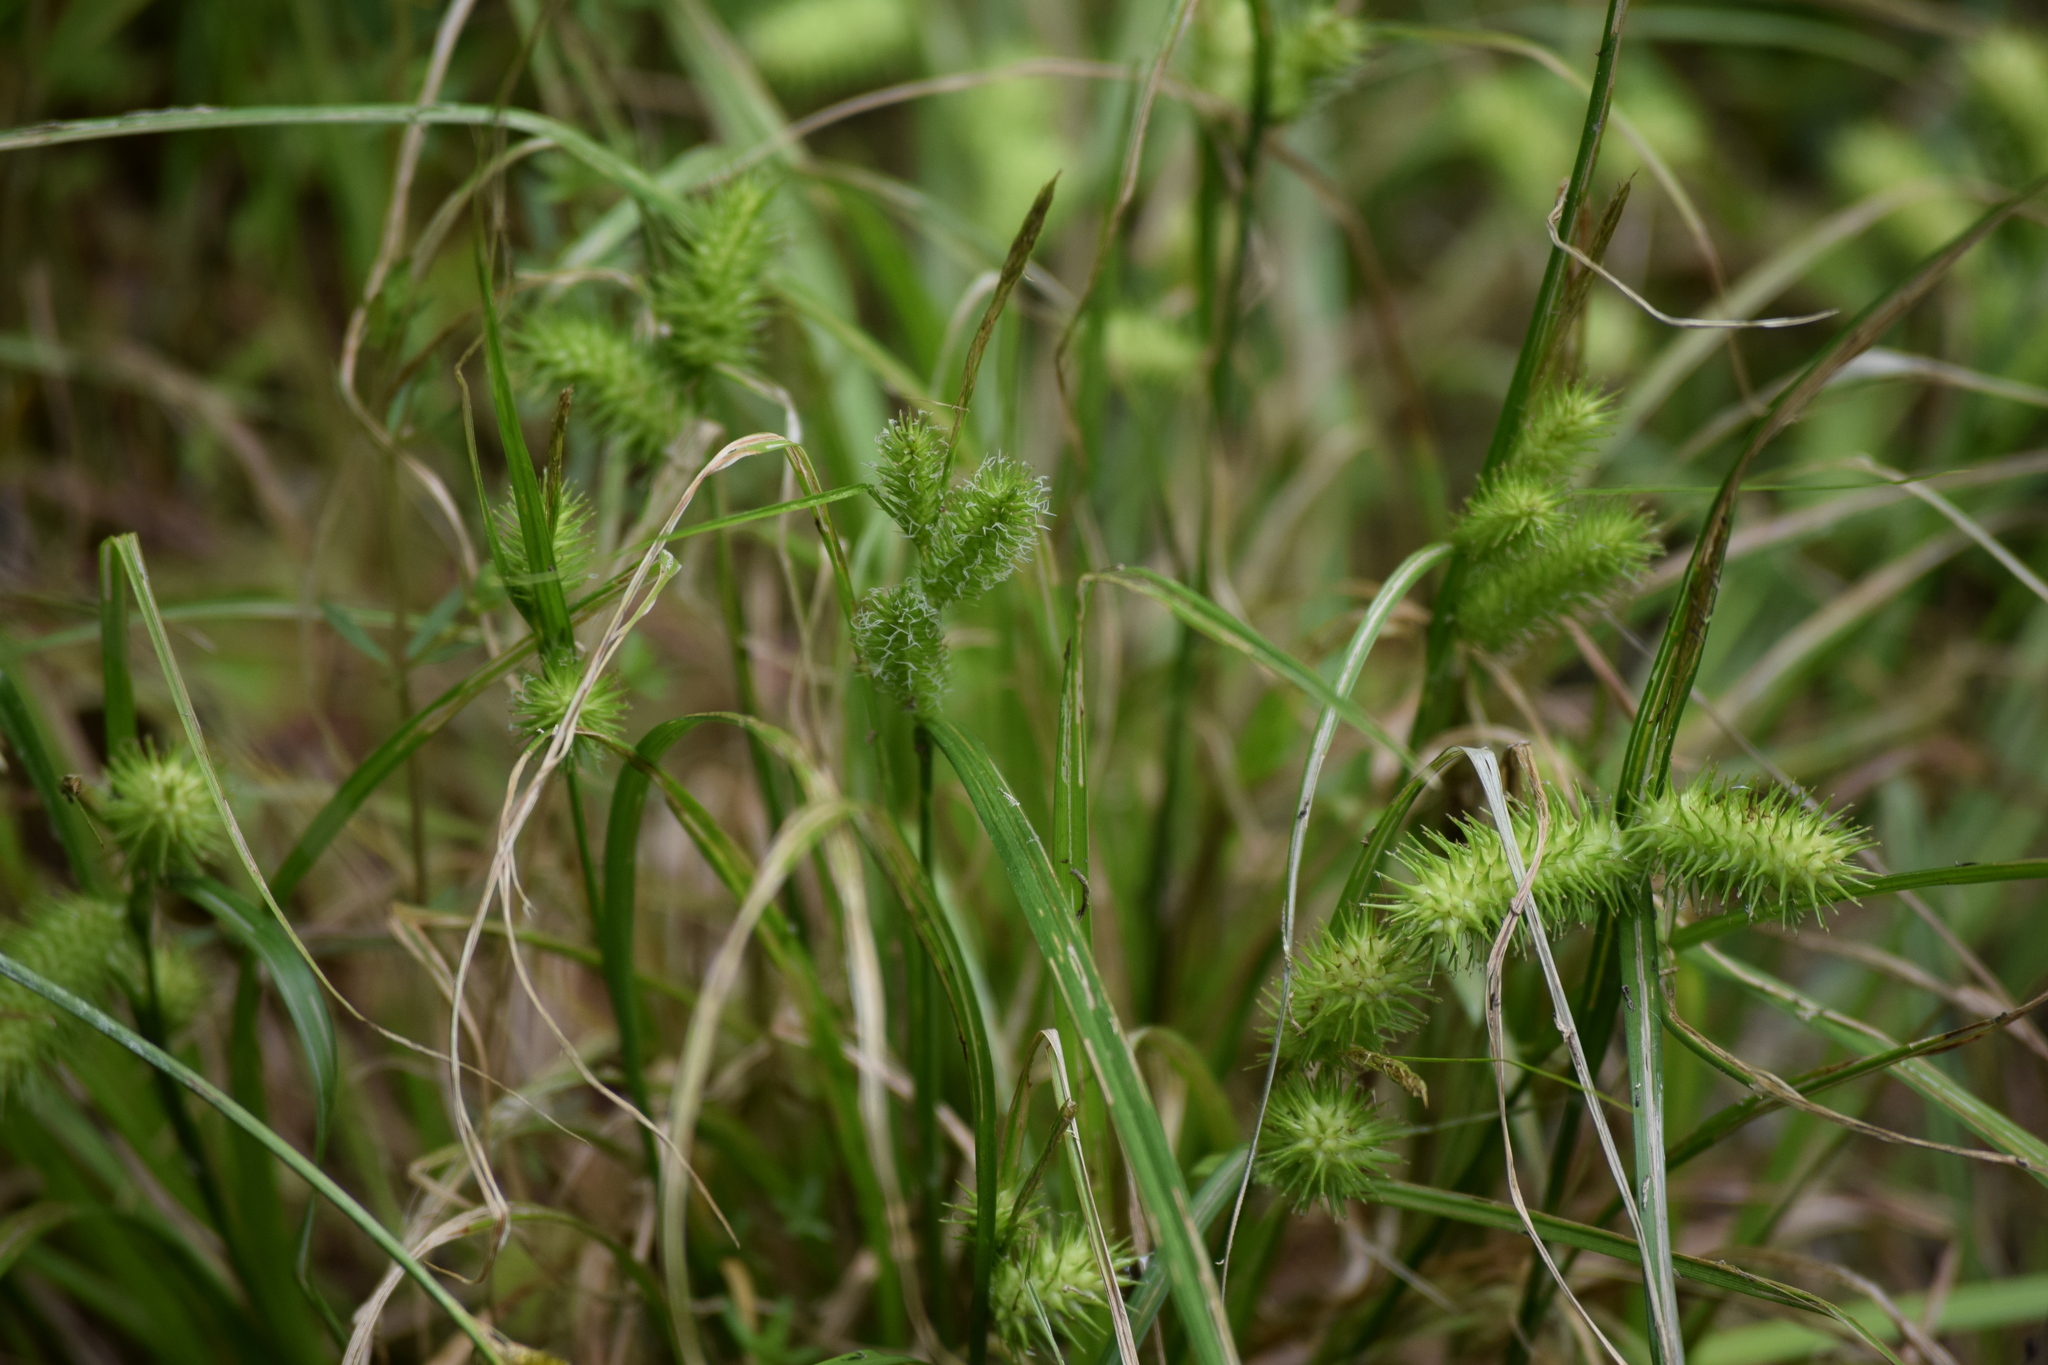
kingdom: Plantae
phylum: Tracheophyta
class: Liliopsida
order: Poales
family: Cyperaceae
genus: Carex
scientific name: Carex lurida
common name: Sallow sedge
